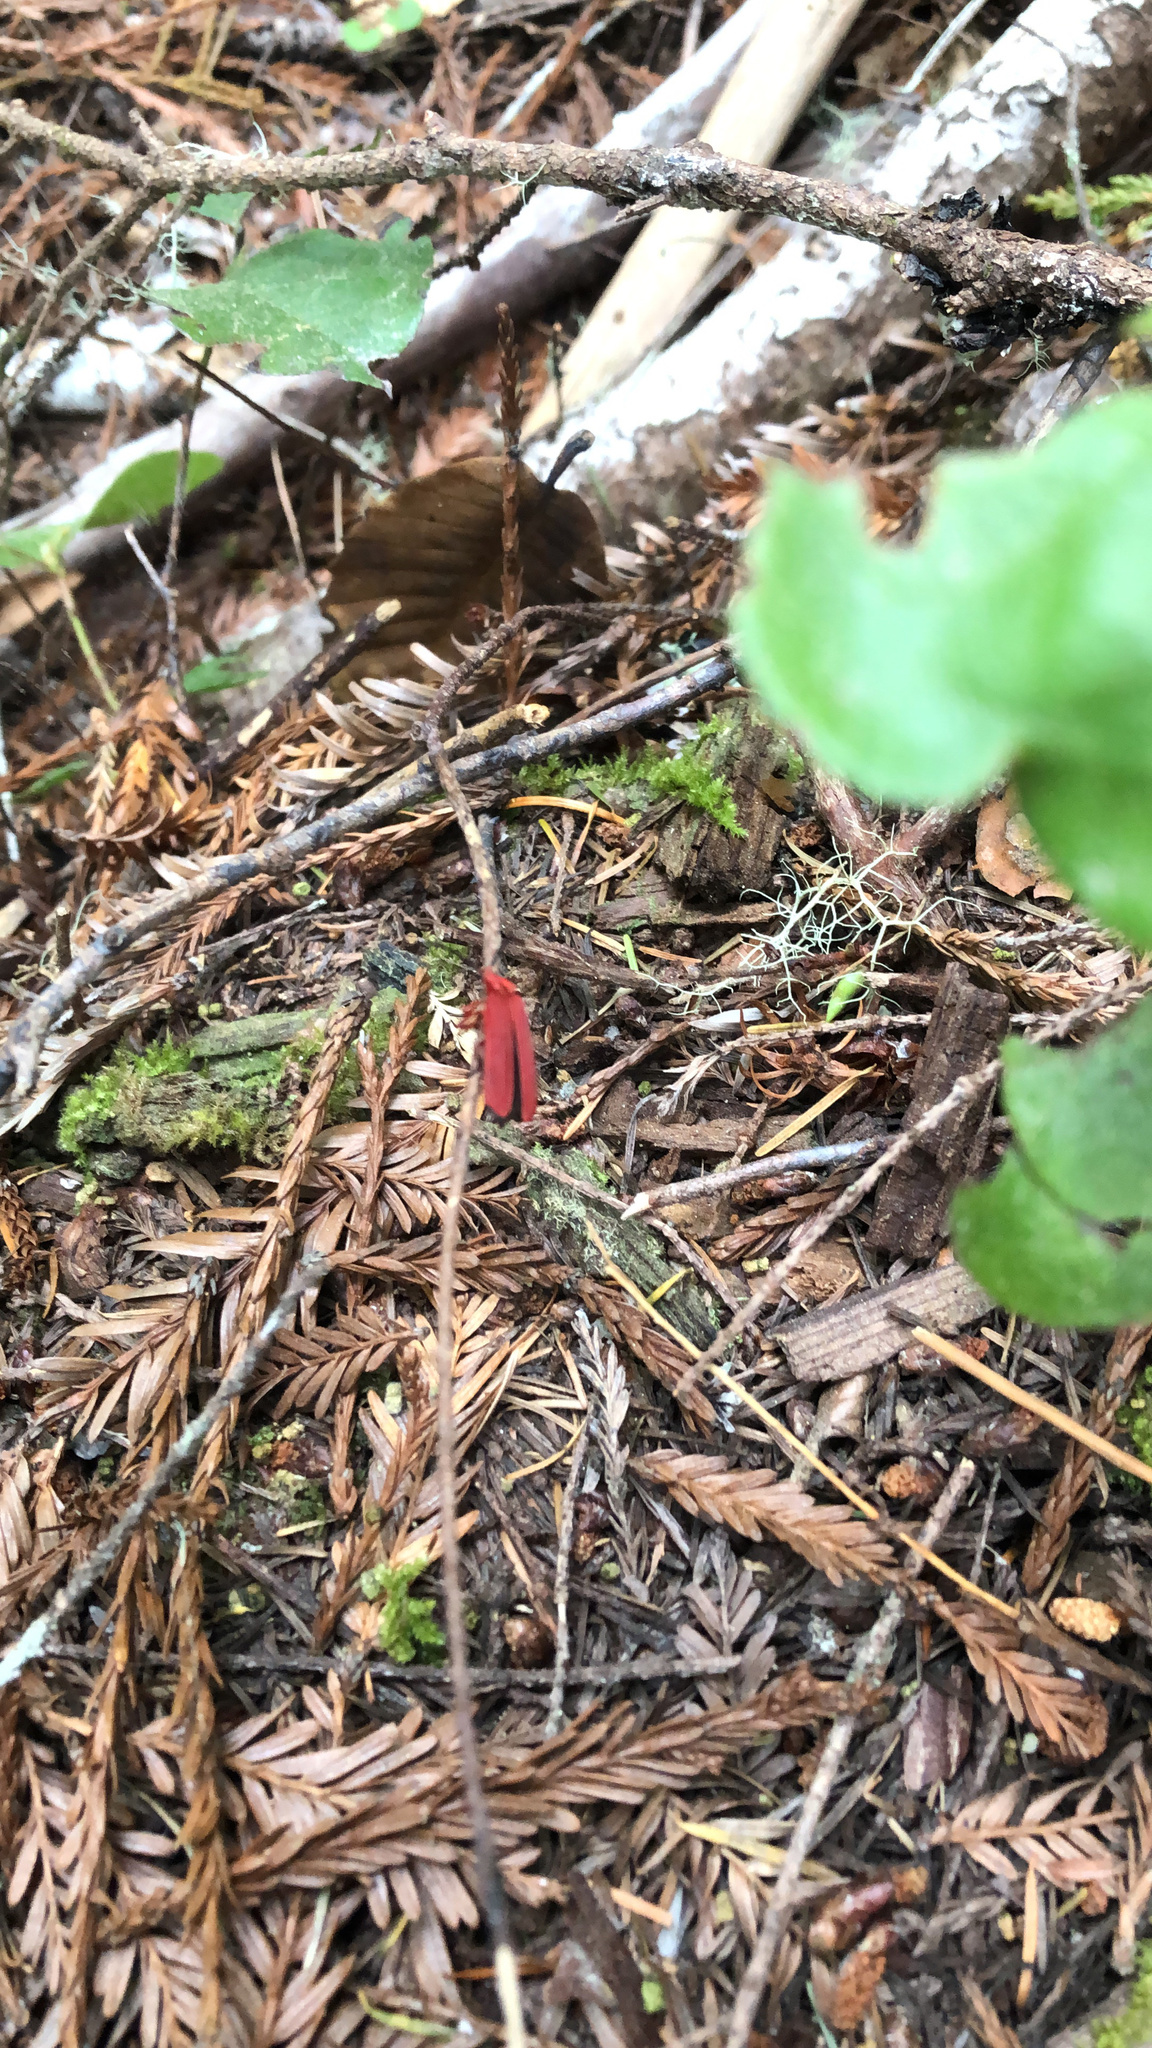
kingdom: Animalia
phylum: Arthropoda
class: Insecta
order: Coleoptera
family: Lycidae
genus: Dictyoptera
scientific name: Dictyoptera simplicipes
